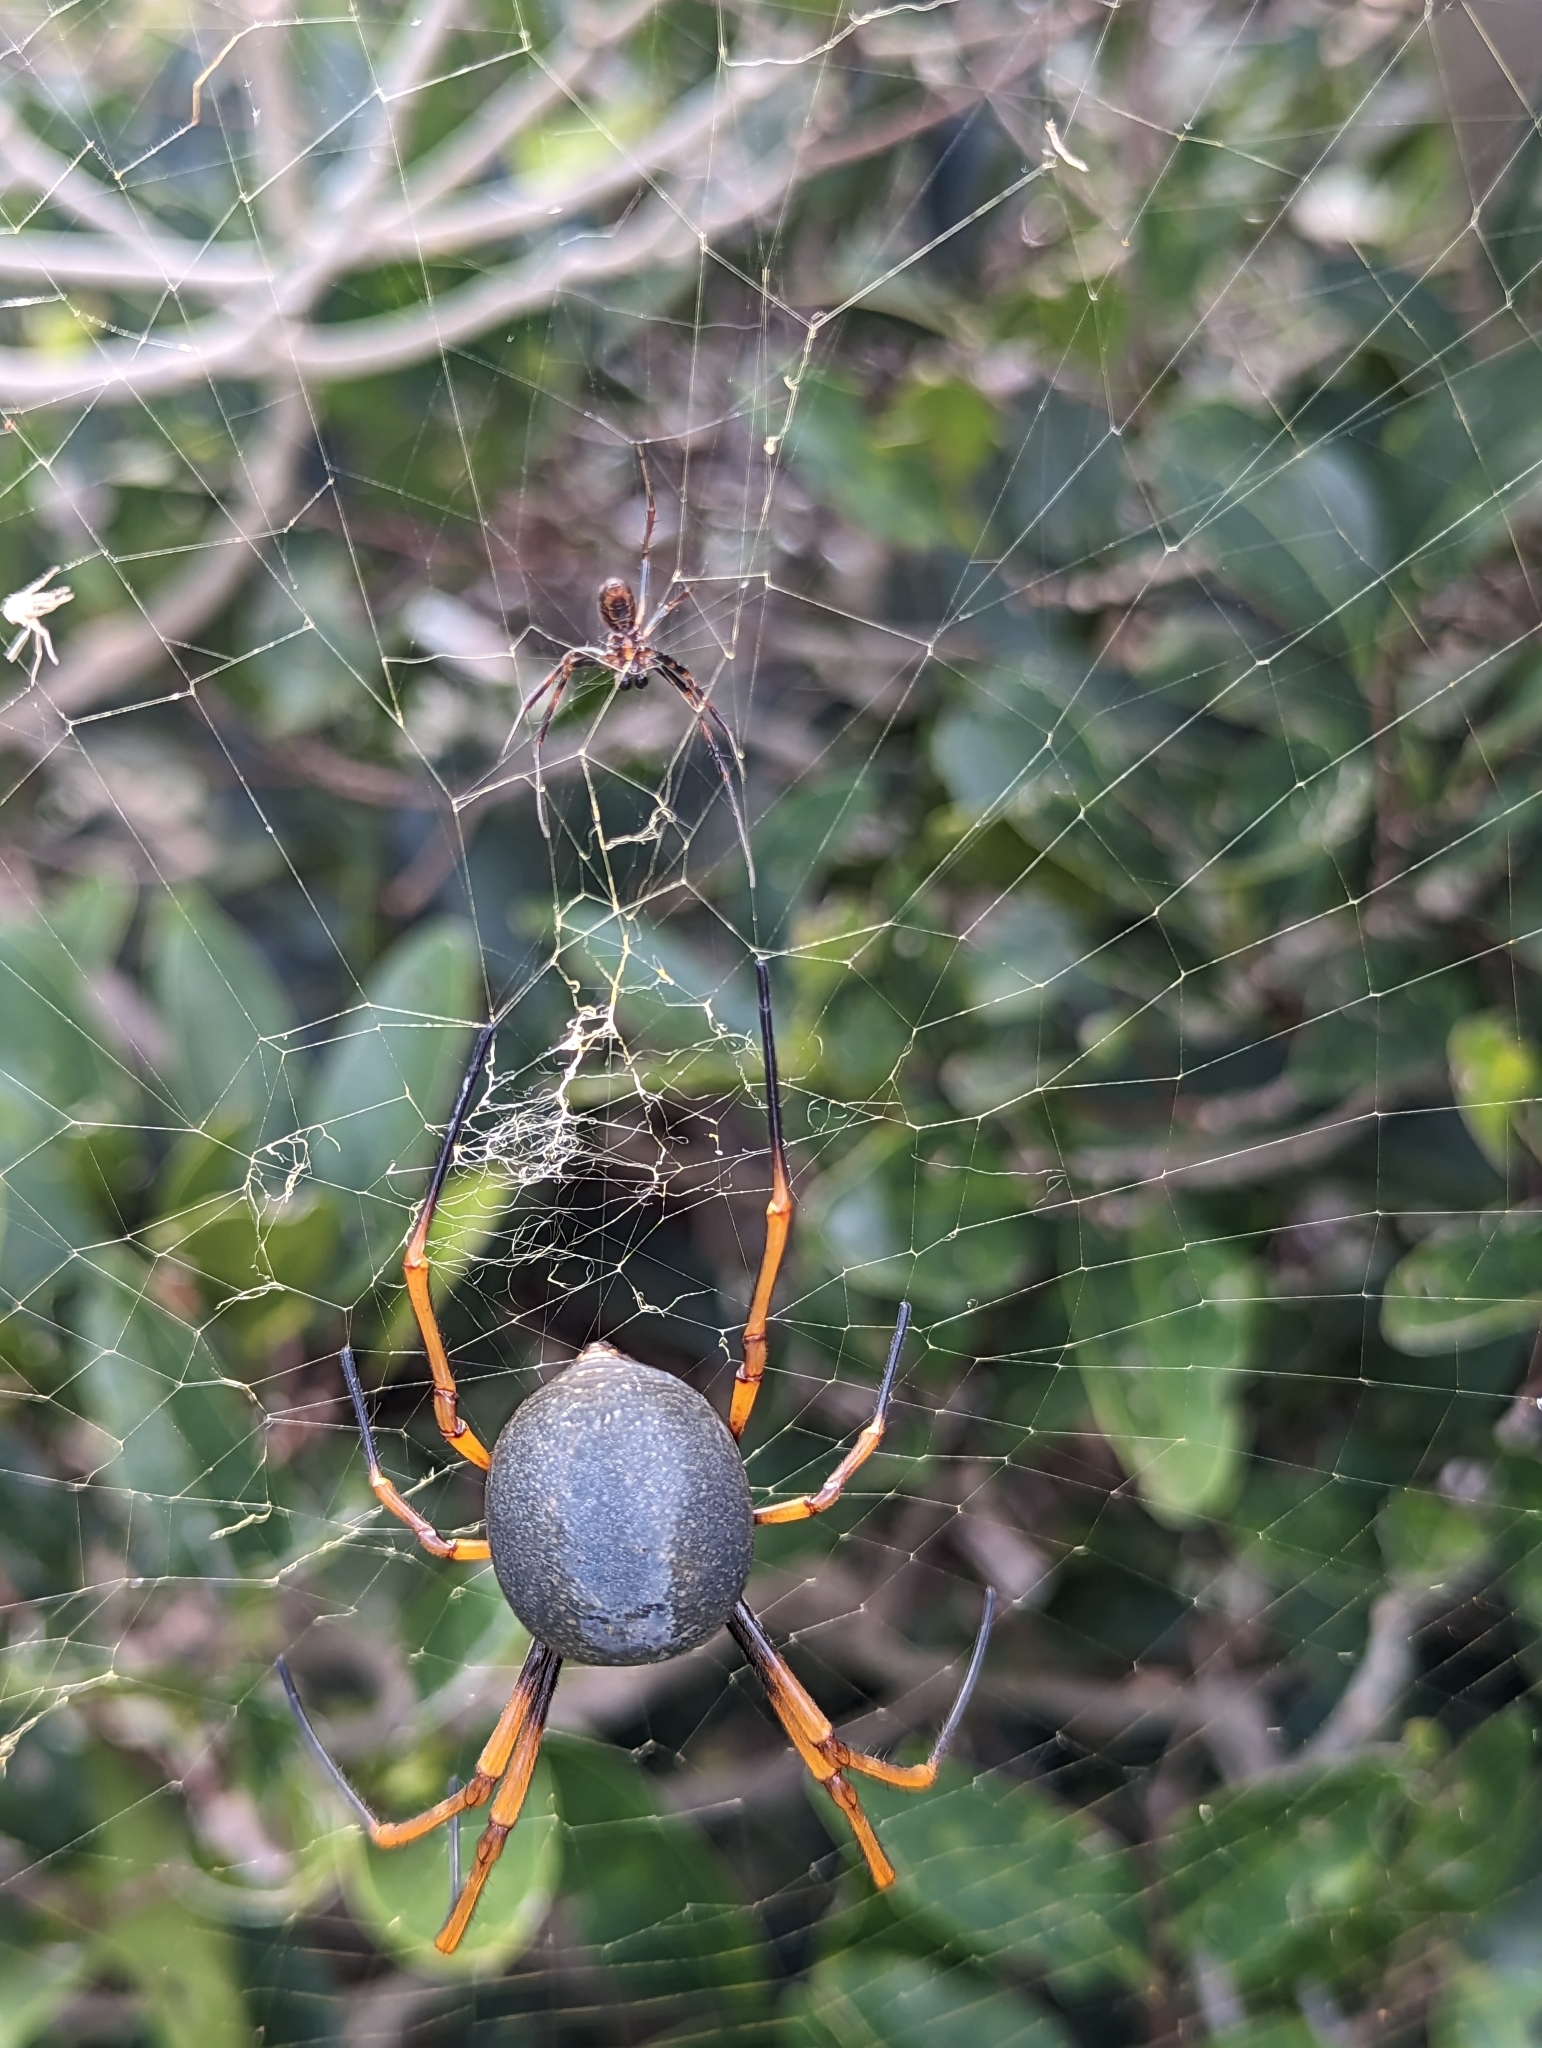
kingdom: Animalia
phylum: Arthropoda
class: Arachnida
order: Araneae
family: Araneidae
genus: Trichonephila
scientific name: Trichonephila plumipes
